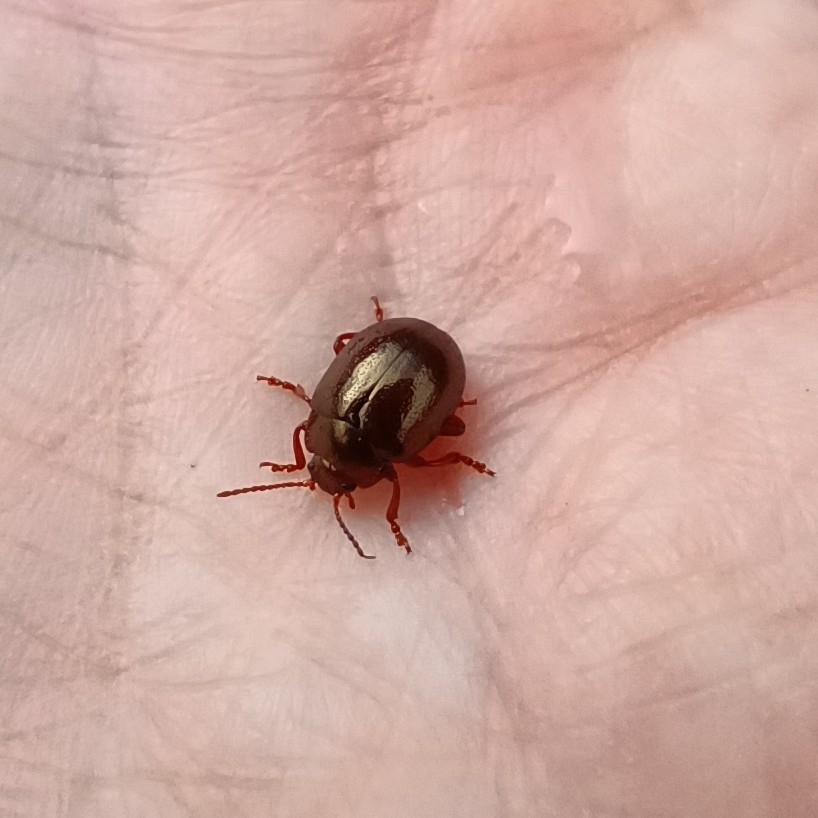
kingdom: Animalia
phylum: Arthropoda
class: Insecta
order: Coleoptera
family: Chrysomelidae
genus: Chrysolina
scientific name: Chrysolina staphylaea
